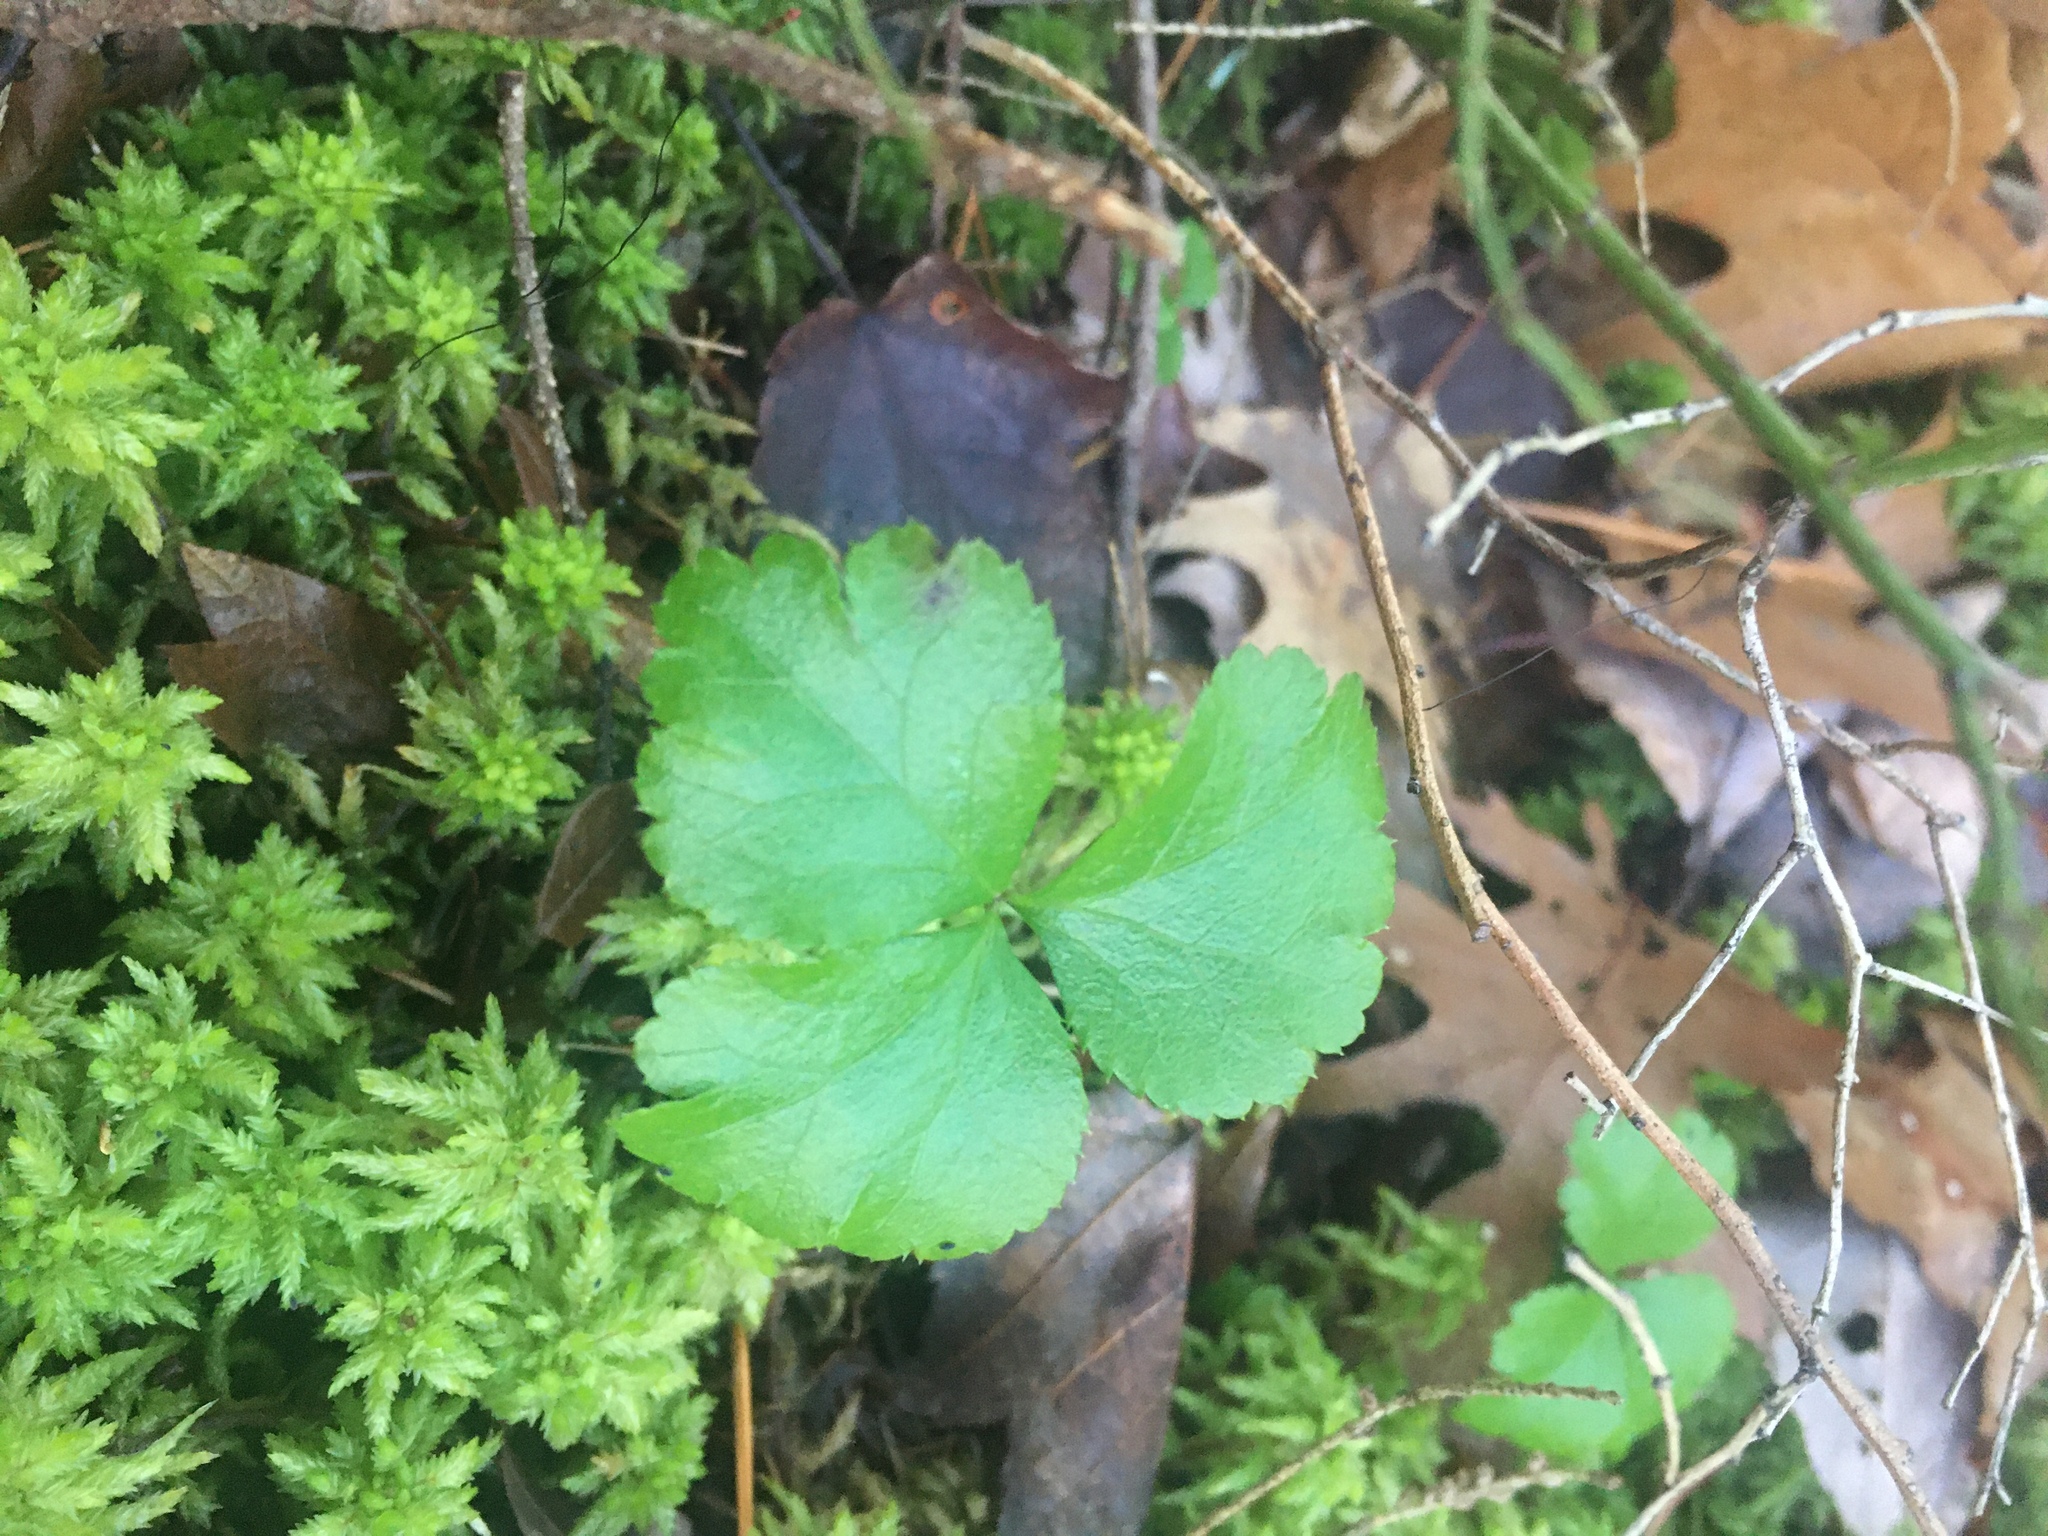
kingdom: Plantae
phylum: Tracheophyta
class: Magnoliopsida
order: Ranunculales
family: Ranunculaceae
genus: Coptis
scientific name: Coptis trifolia
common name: Canker-root
